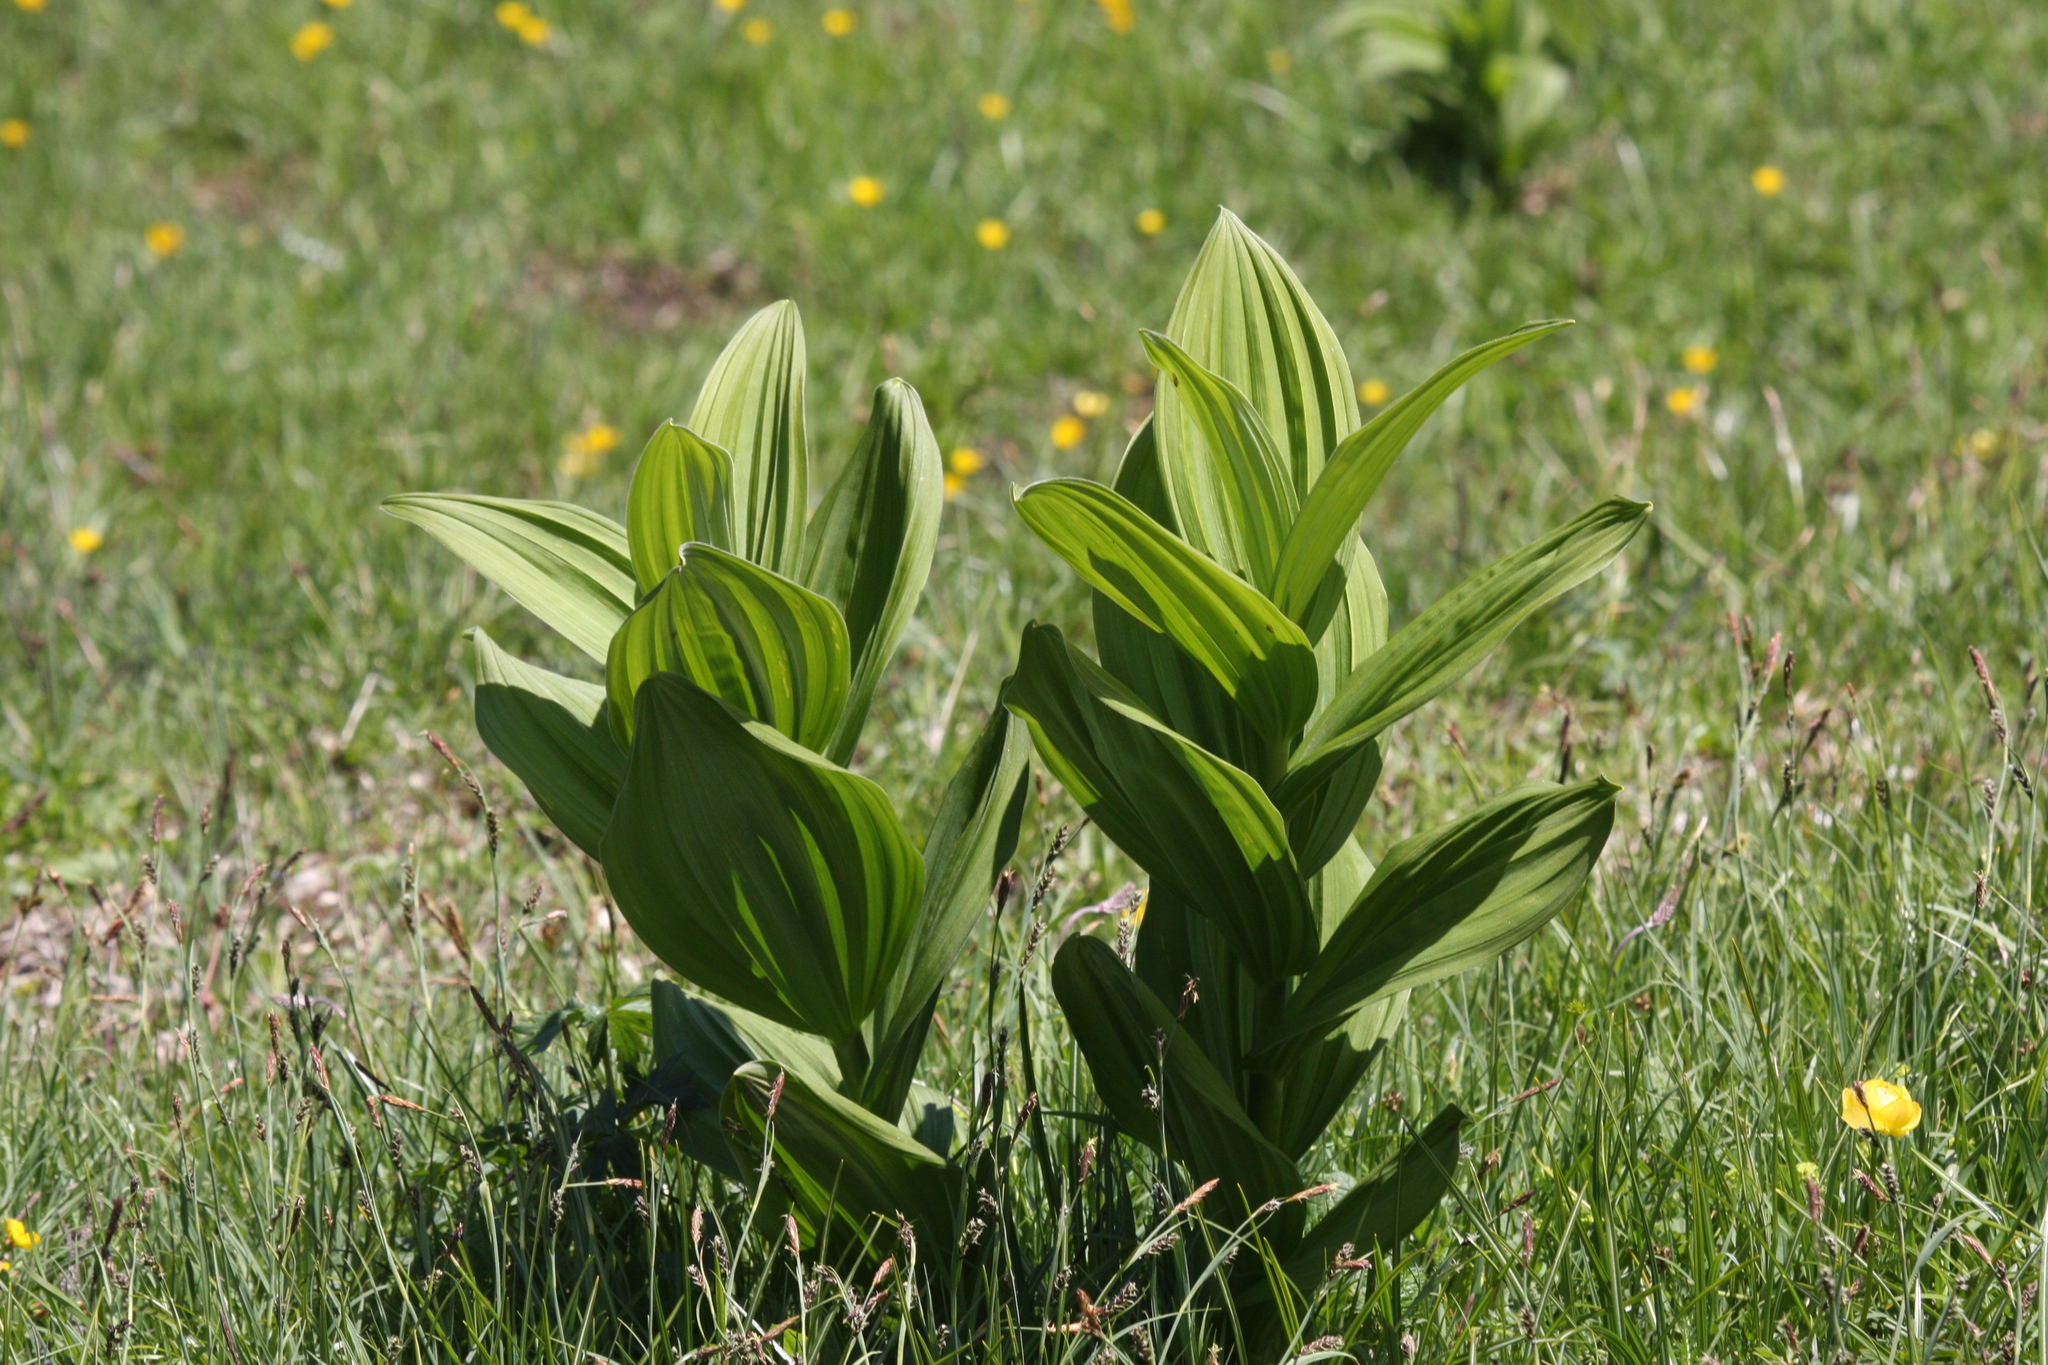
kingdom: Plantae
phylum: Tracheophyta
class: Liliopsida
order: Liliales
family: Melanthiaceae
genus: Veratrum
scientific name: Veratrum album
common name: White veratrum
